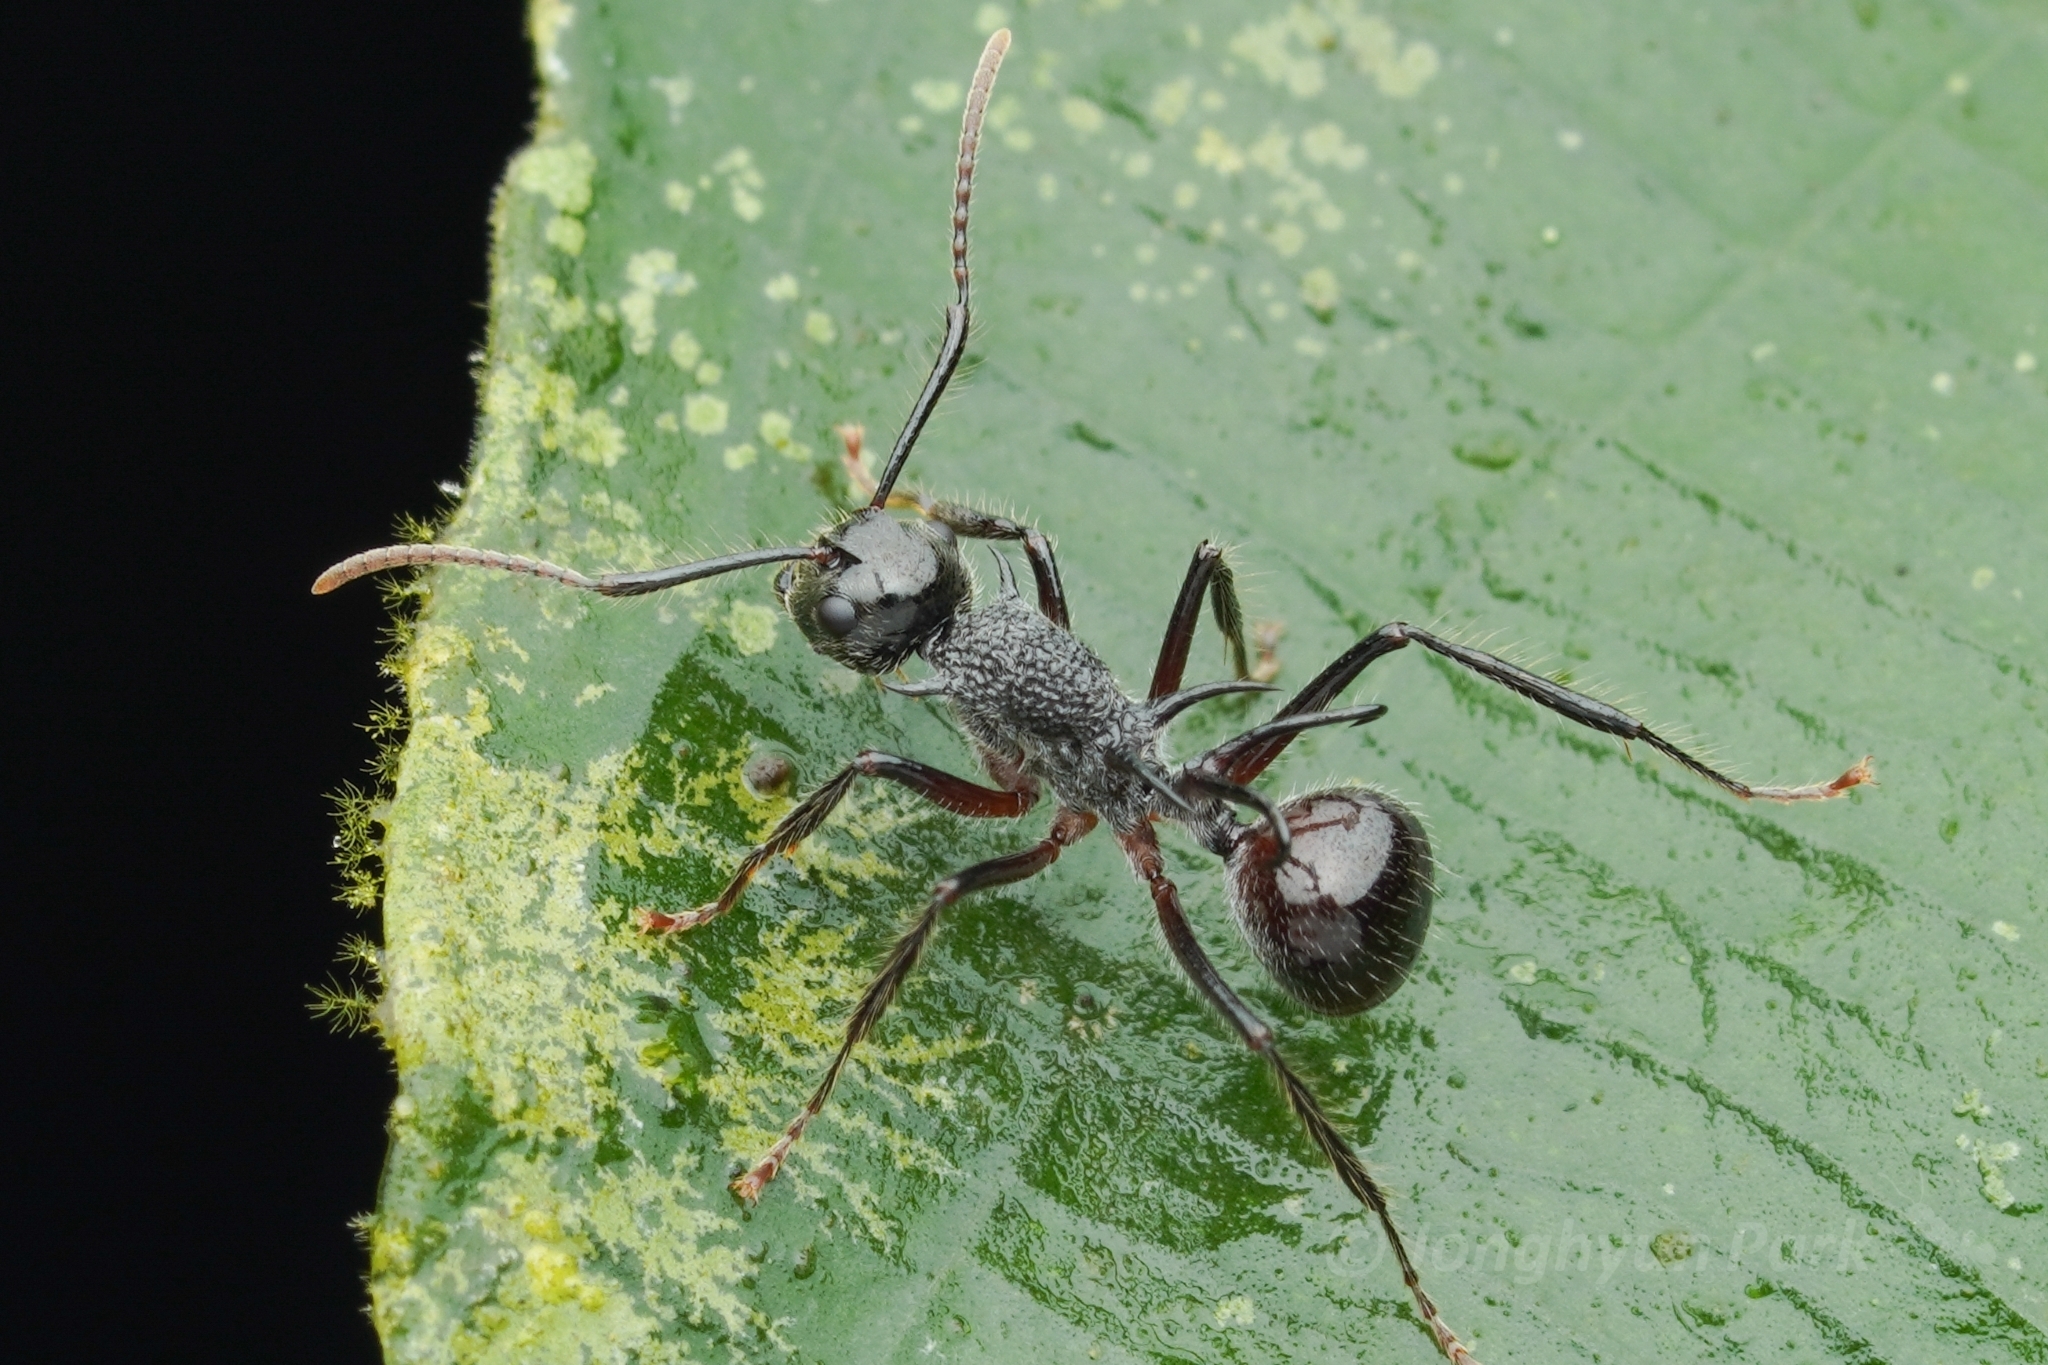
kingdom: Animalia
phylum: Arthropoda
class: Insecta
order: Hymenoptera
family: Formicidae
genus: Polyrhachis
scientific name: Polyrhachis furcata
